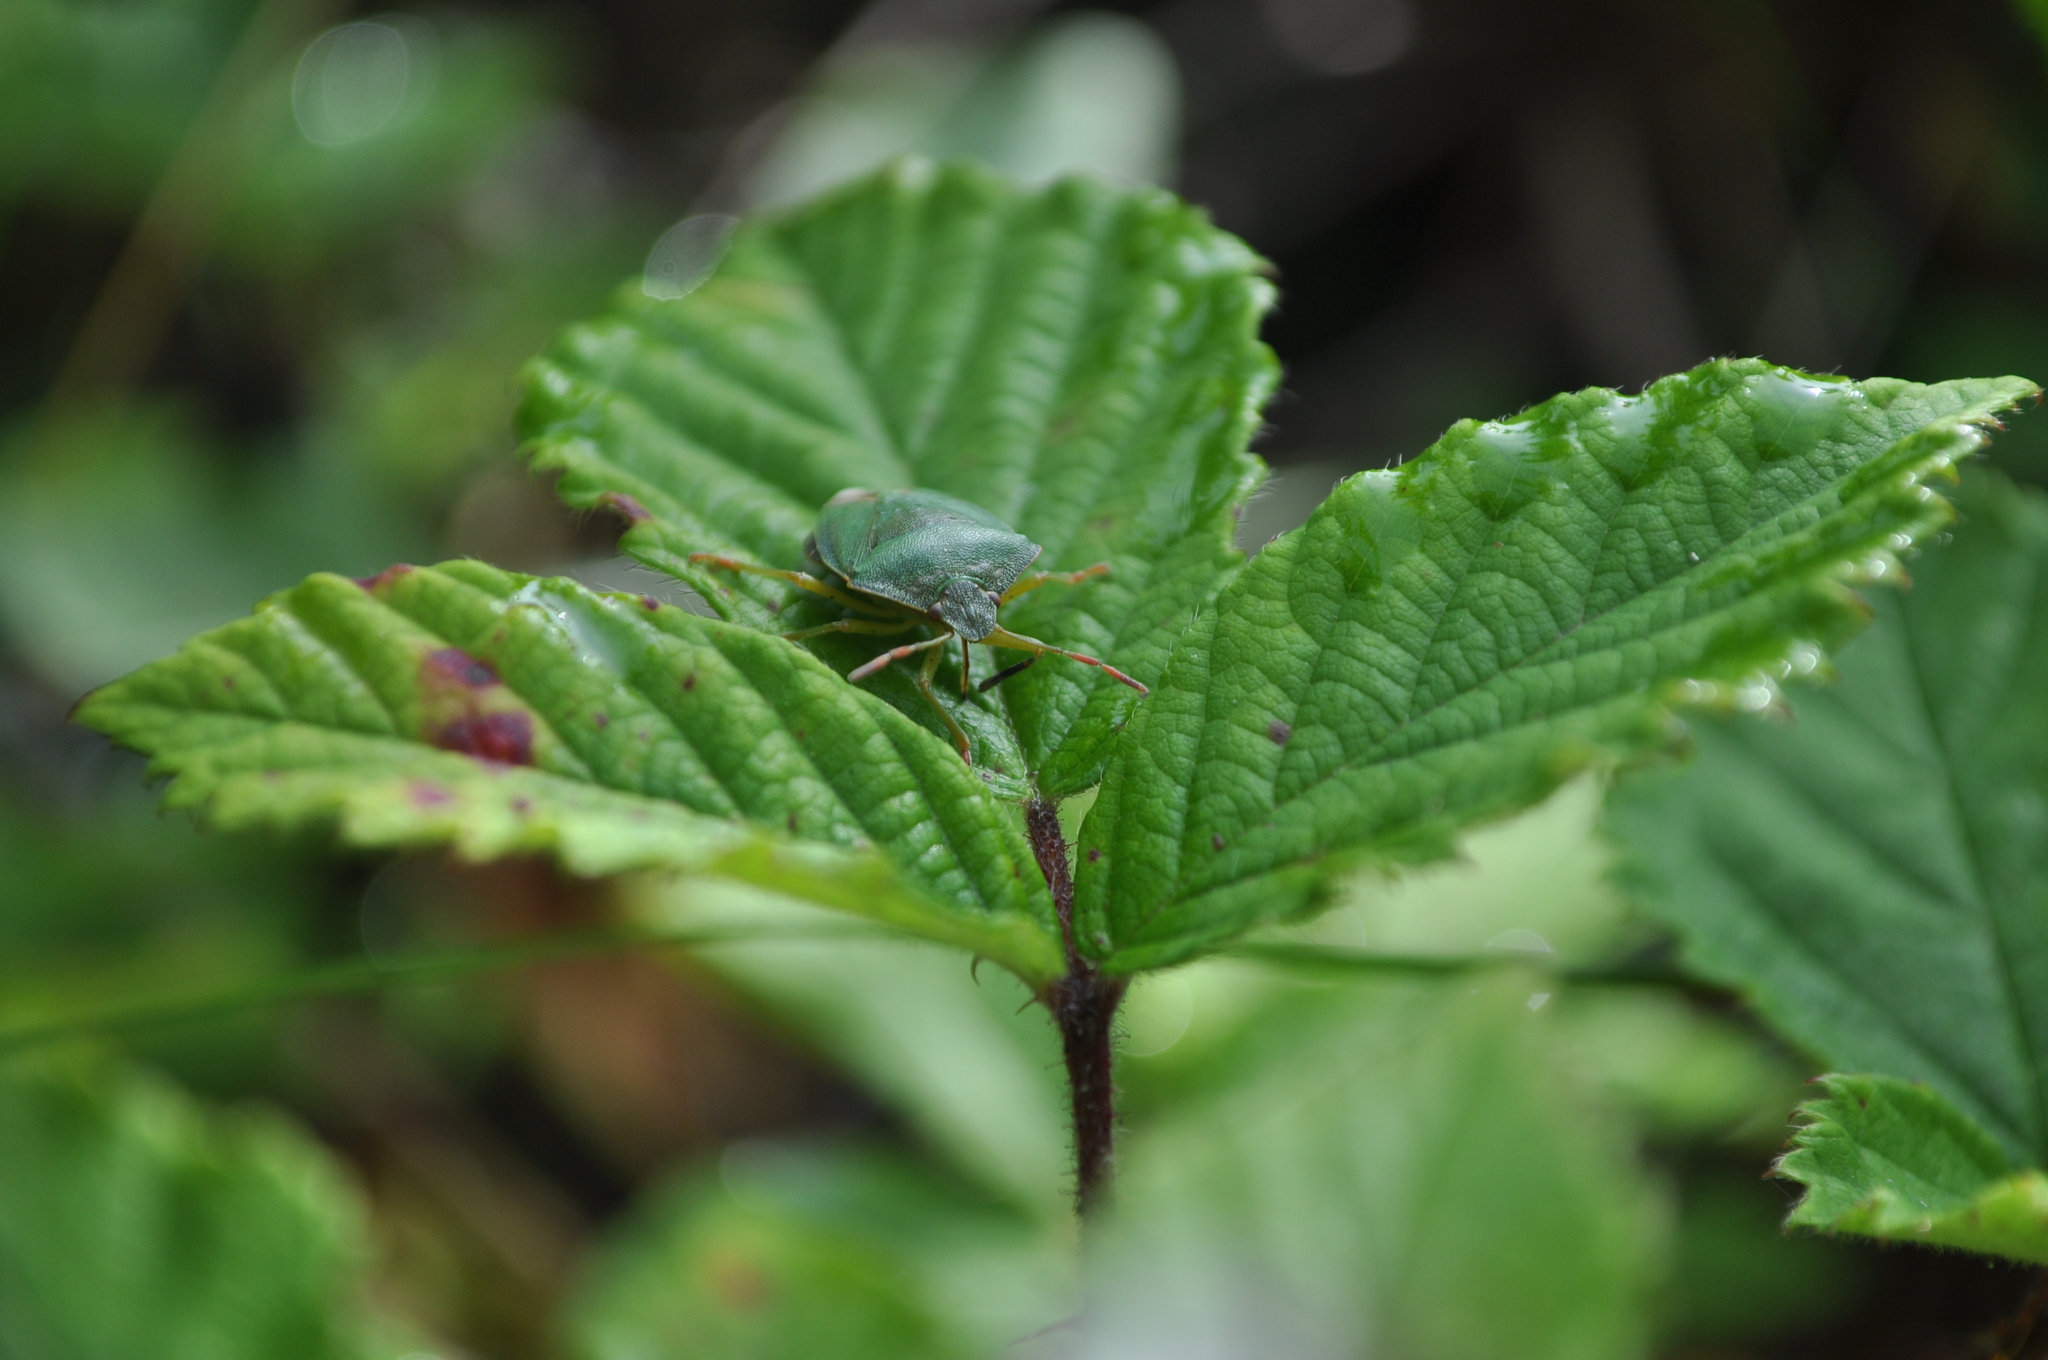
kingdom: Animalia
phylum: Arthropoda
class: Insecta
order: Hemiptera
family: Pentatomidae
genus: Palomena
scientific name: Palomena prasina
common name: Green shieldbug
